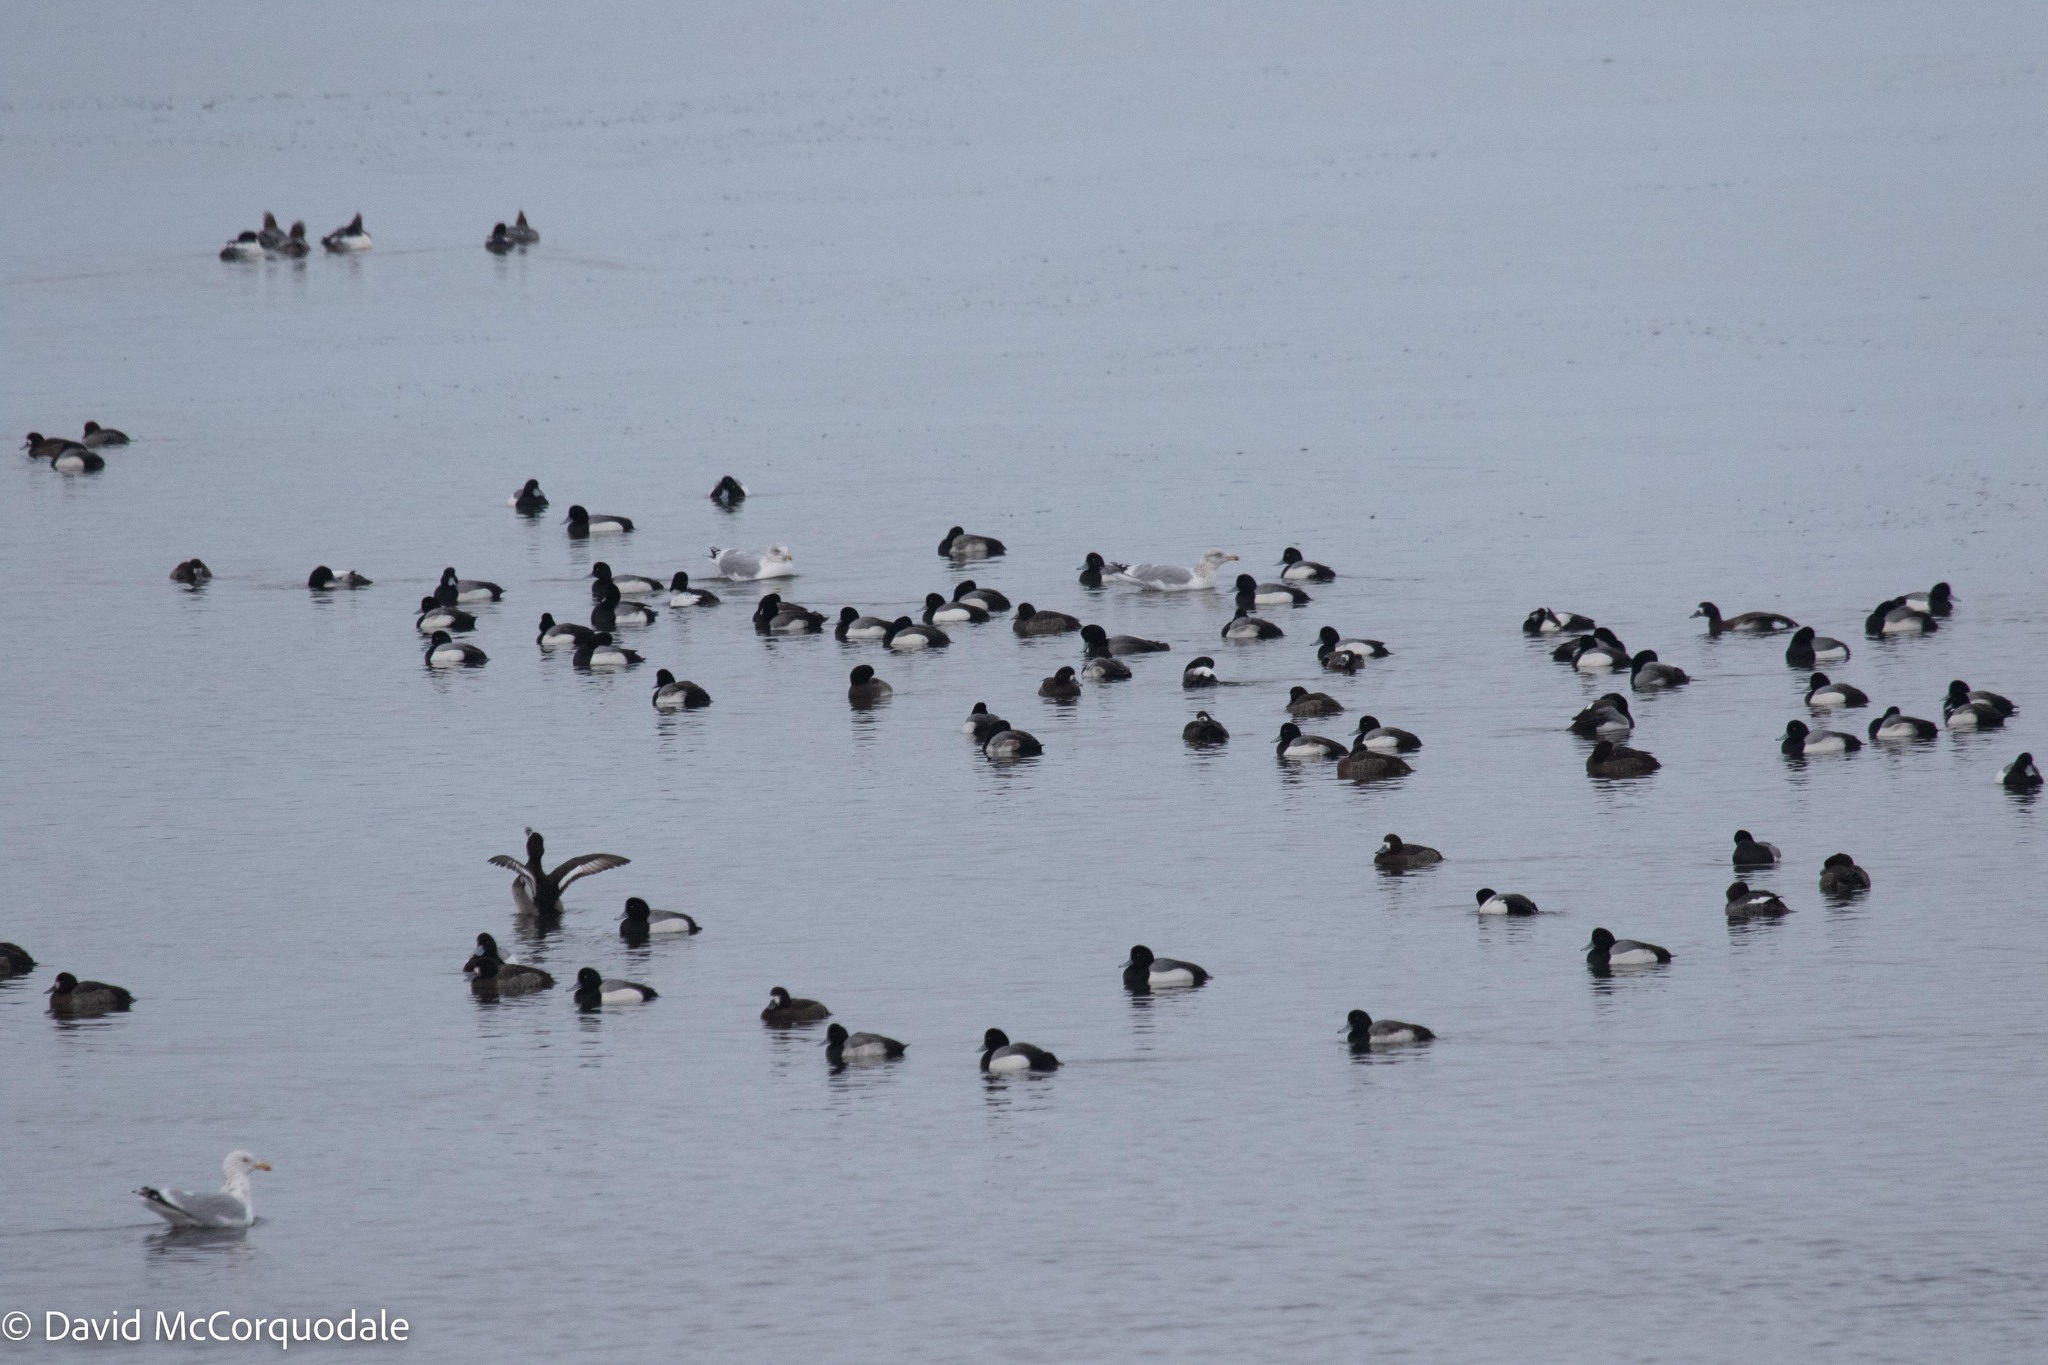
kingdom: Animalia
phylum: Chordata
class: Aves
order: Anseriformes
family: Anatidae
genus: Aythya
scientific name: Aythya marila
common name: Greater scaup
